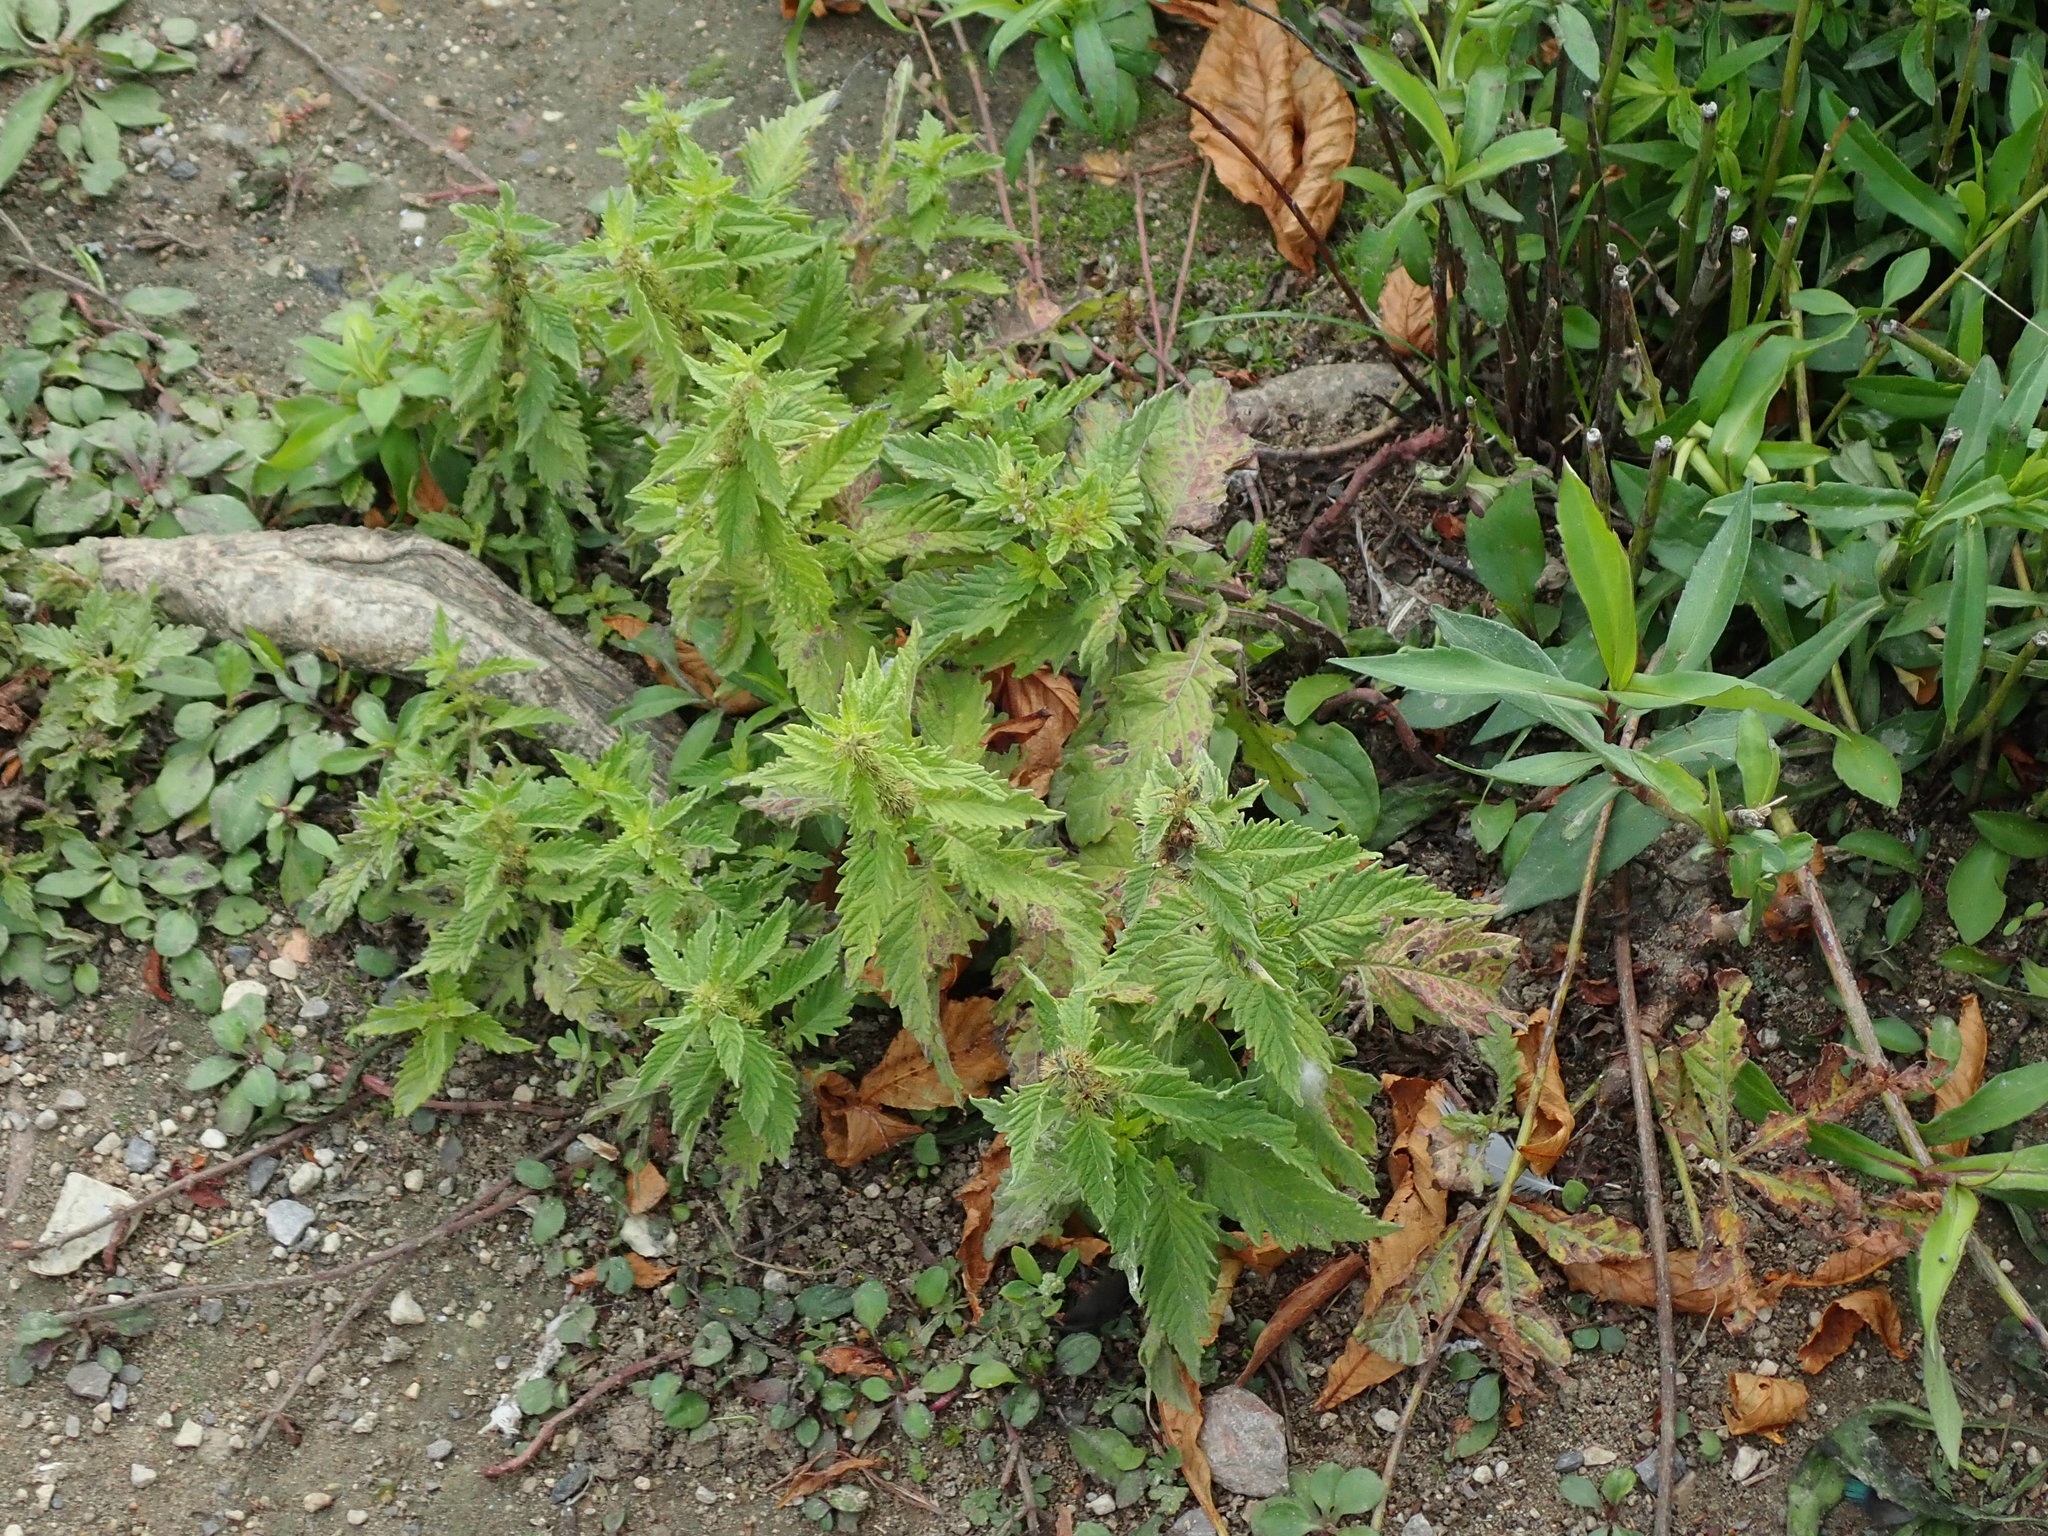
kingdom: Plantae
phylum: Tracheophyta
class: Magnoliopsida
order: Lamiales
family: Lamiaceae
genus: Lycopus
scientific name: Lycopus europaeus
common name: European bugleweed
